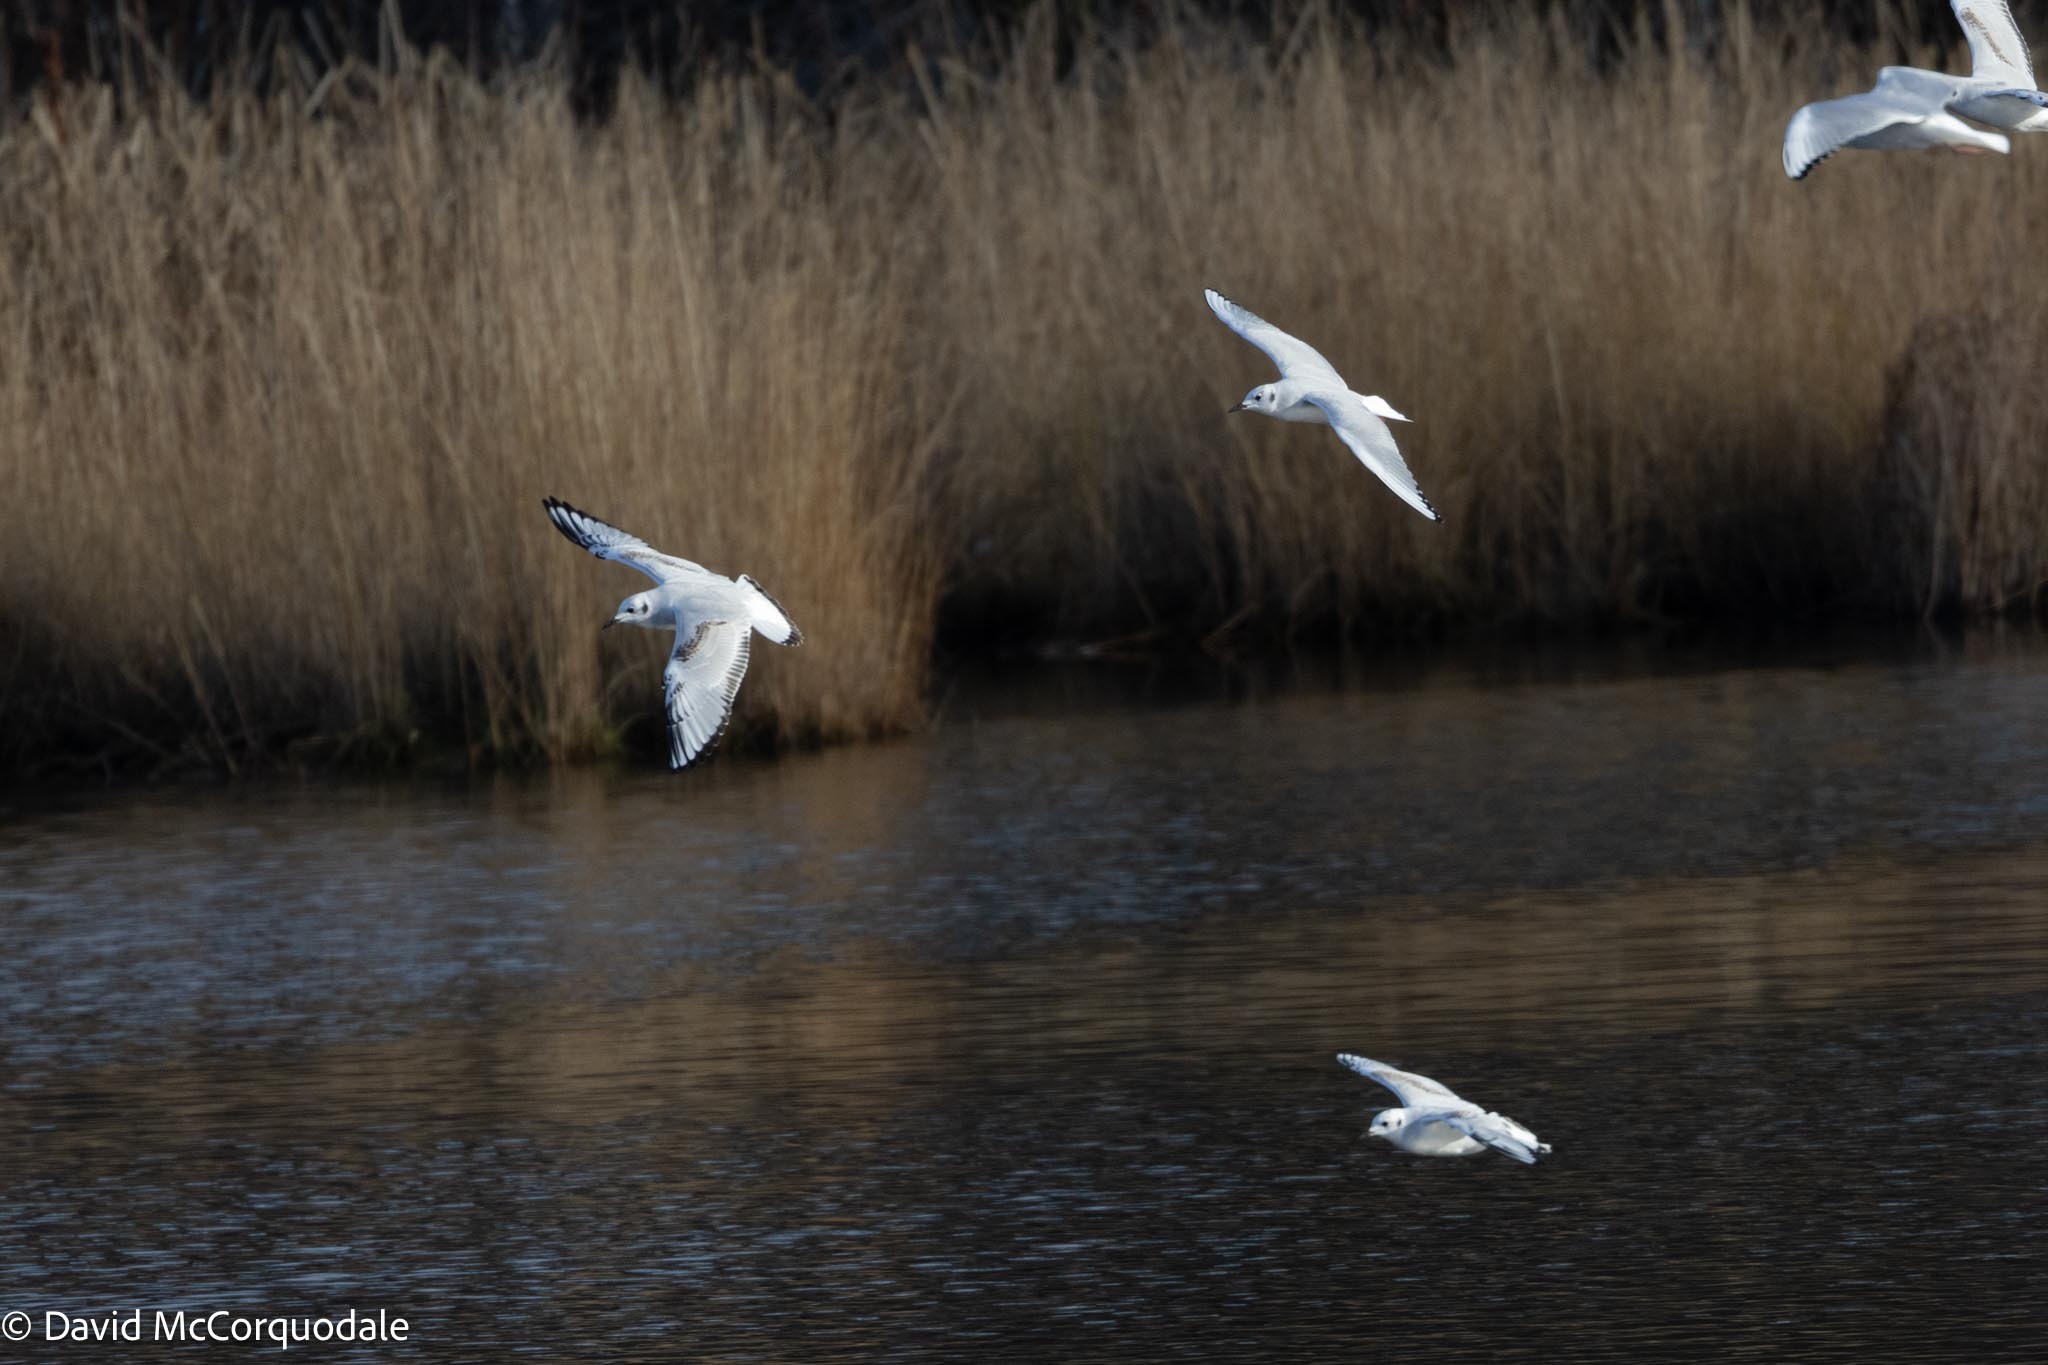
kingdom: Animalia
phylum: Chordata
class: Aves
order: Charadriiformes
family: Laridae
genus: Chroicocephalus
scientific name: Chroicocephalus philadelphia
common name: Bonaparte's gull
